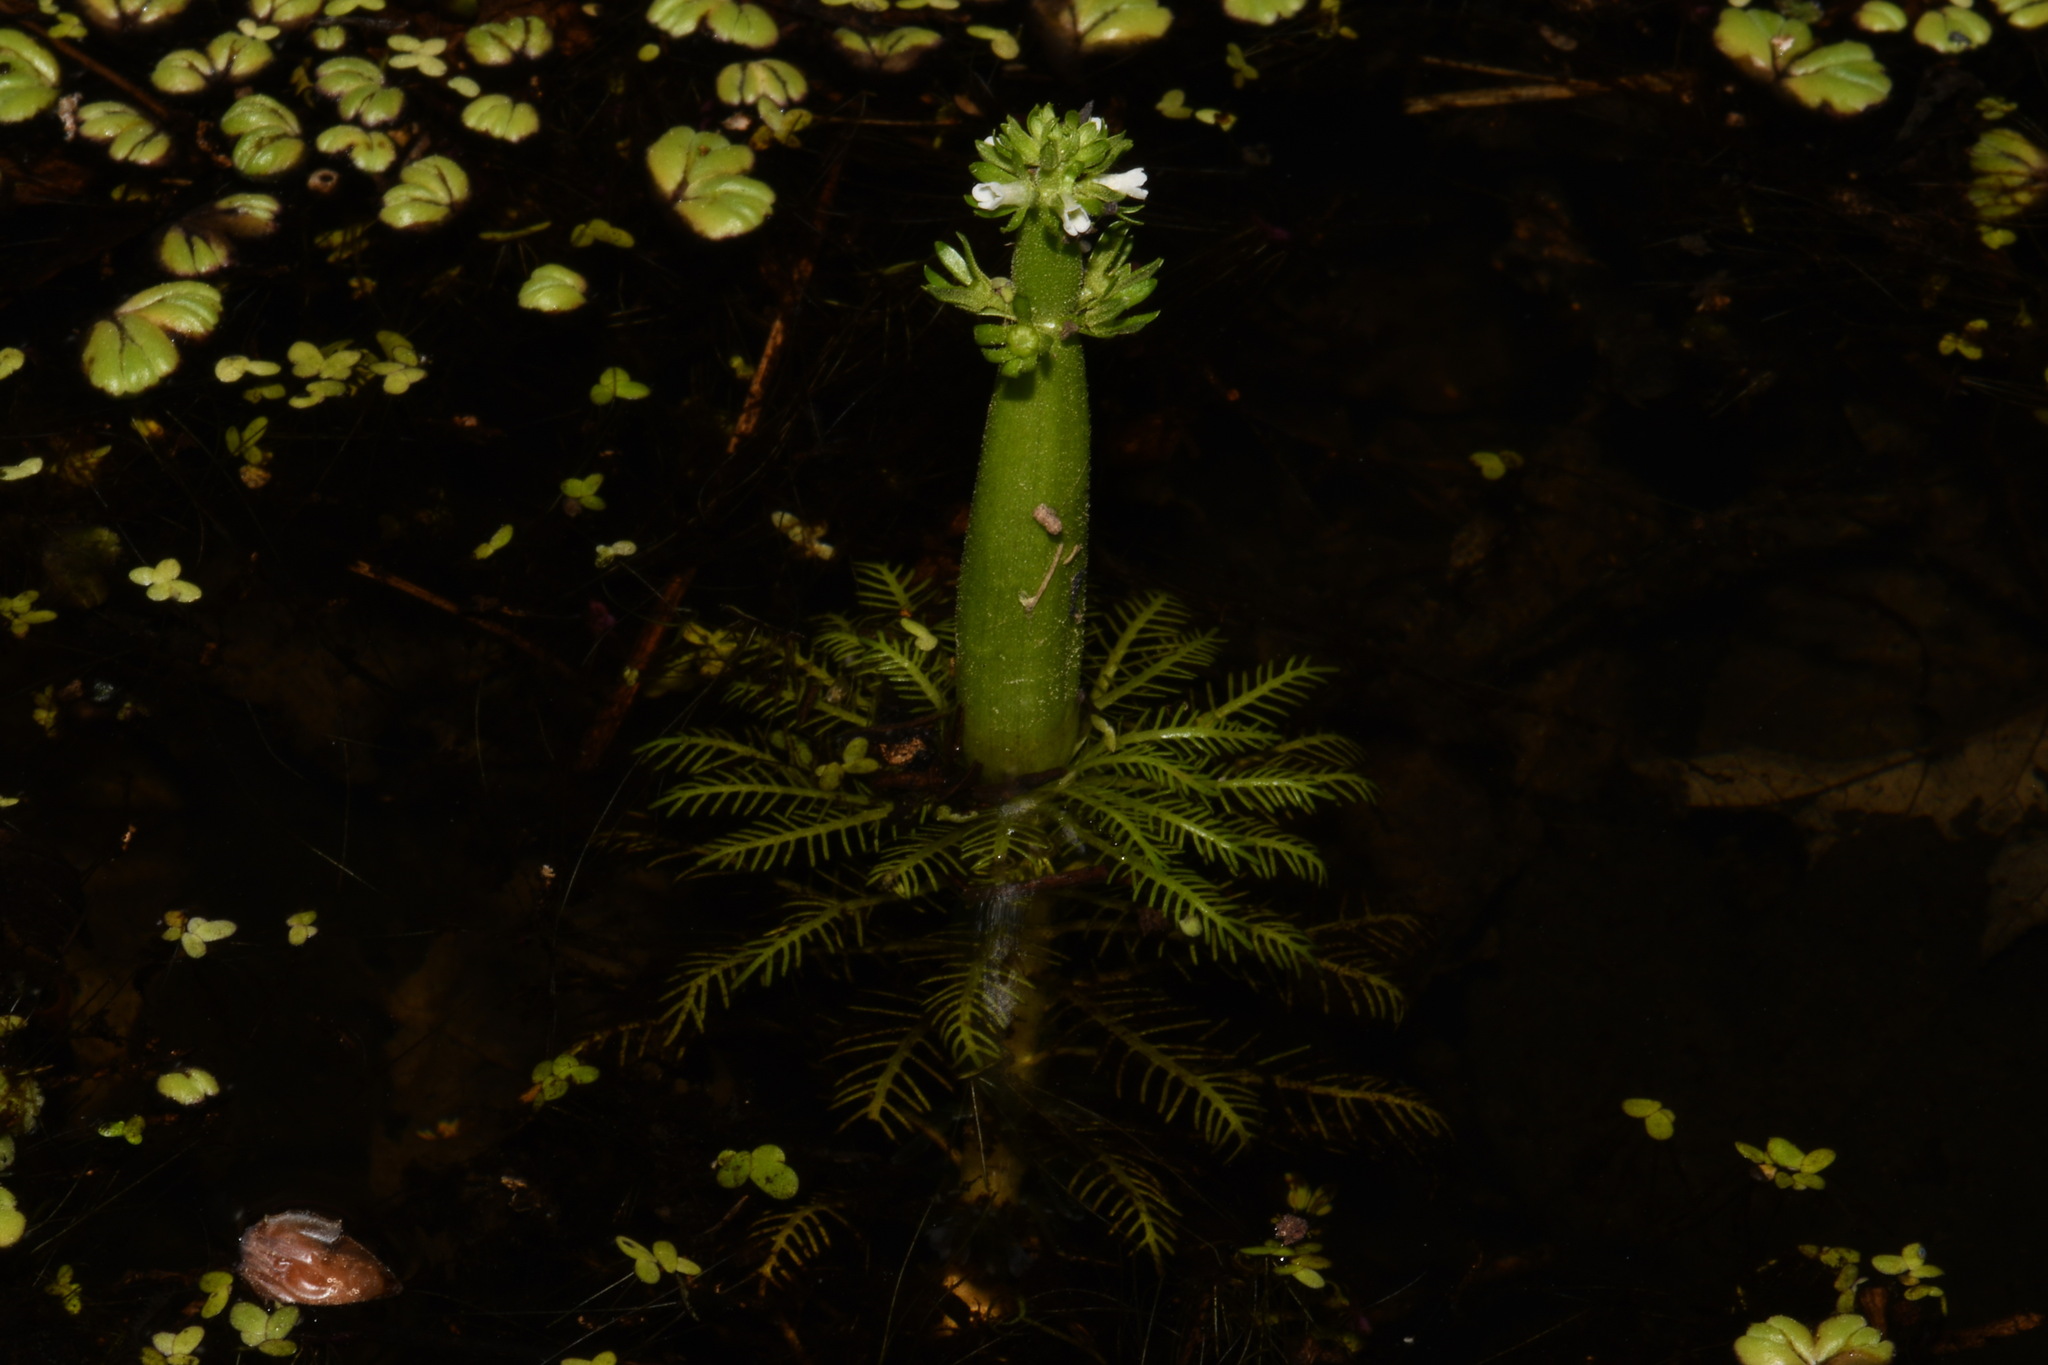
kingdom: Plantae
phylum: Tracheophyta
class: Magnoliopsida
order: Ericales
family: Primulaceae
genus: Hottonia
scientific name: Hottonia inflata
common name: American featherfoil
